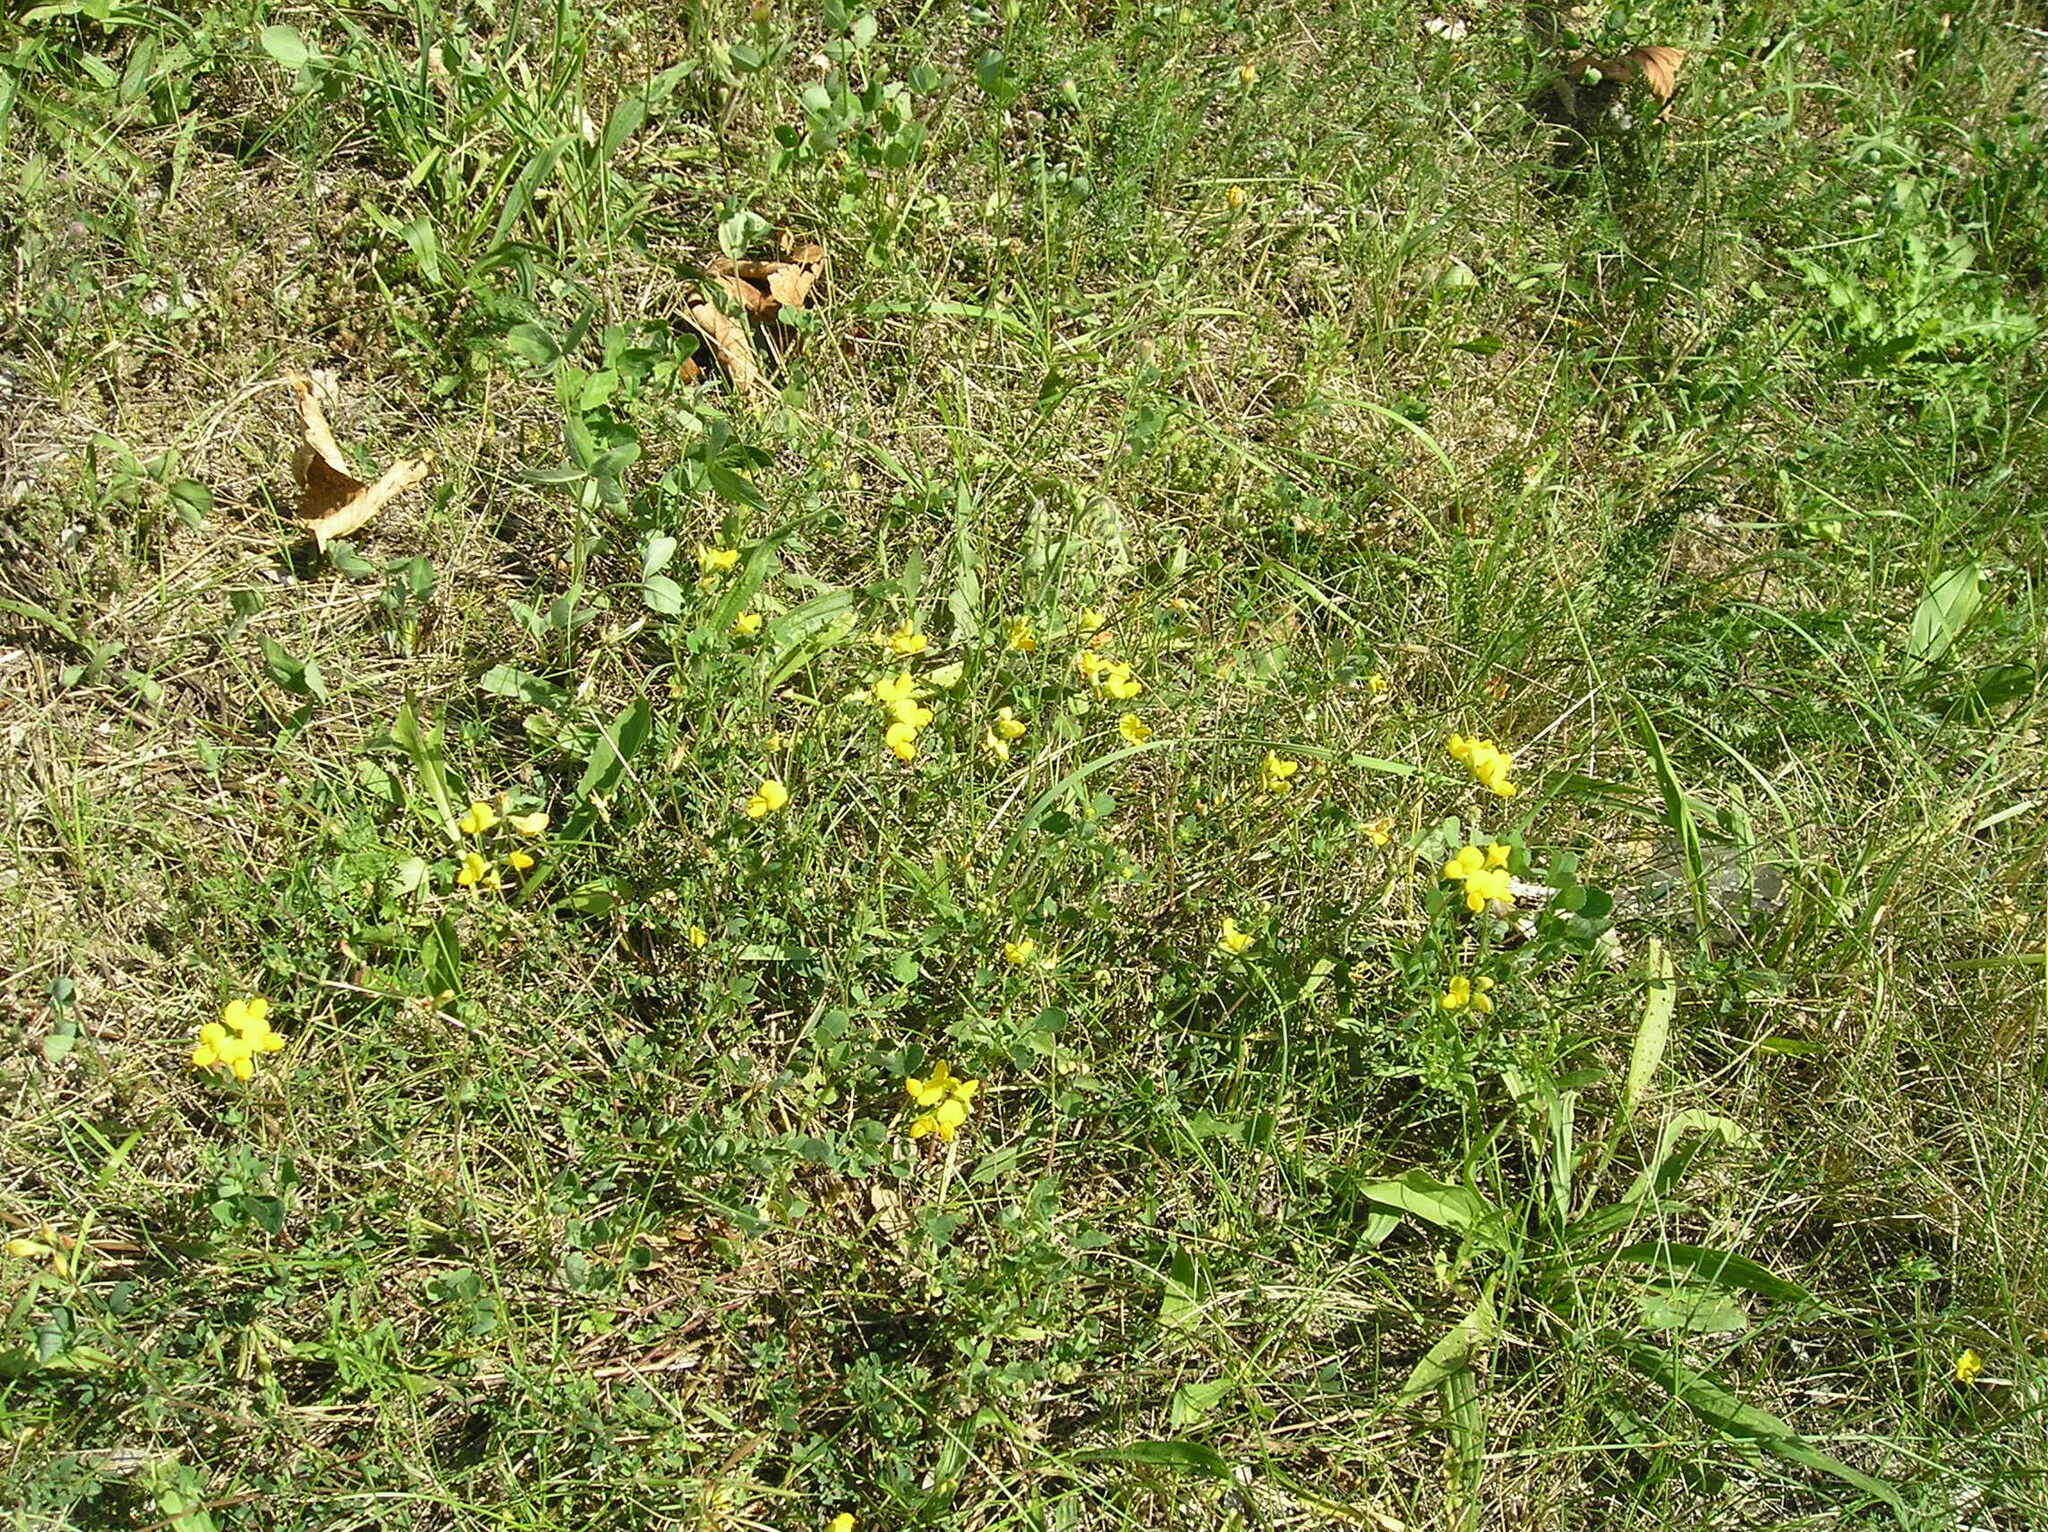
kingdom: Plantae
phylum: Tracheophyta
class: Magnoliopsida
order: Fabales
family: Fabaceae
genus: Lotus
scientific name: Lotus corniculatus
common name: Common bird's-foot-trefoil
